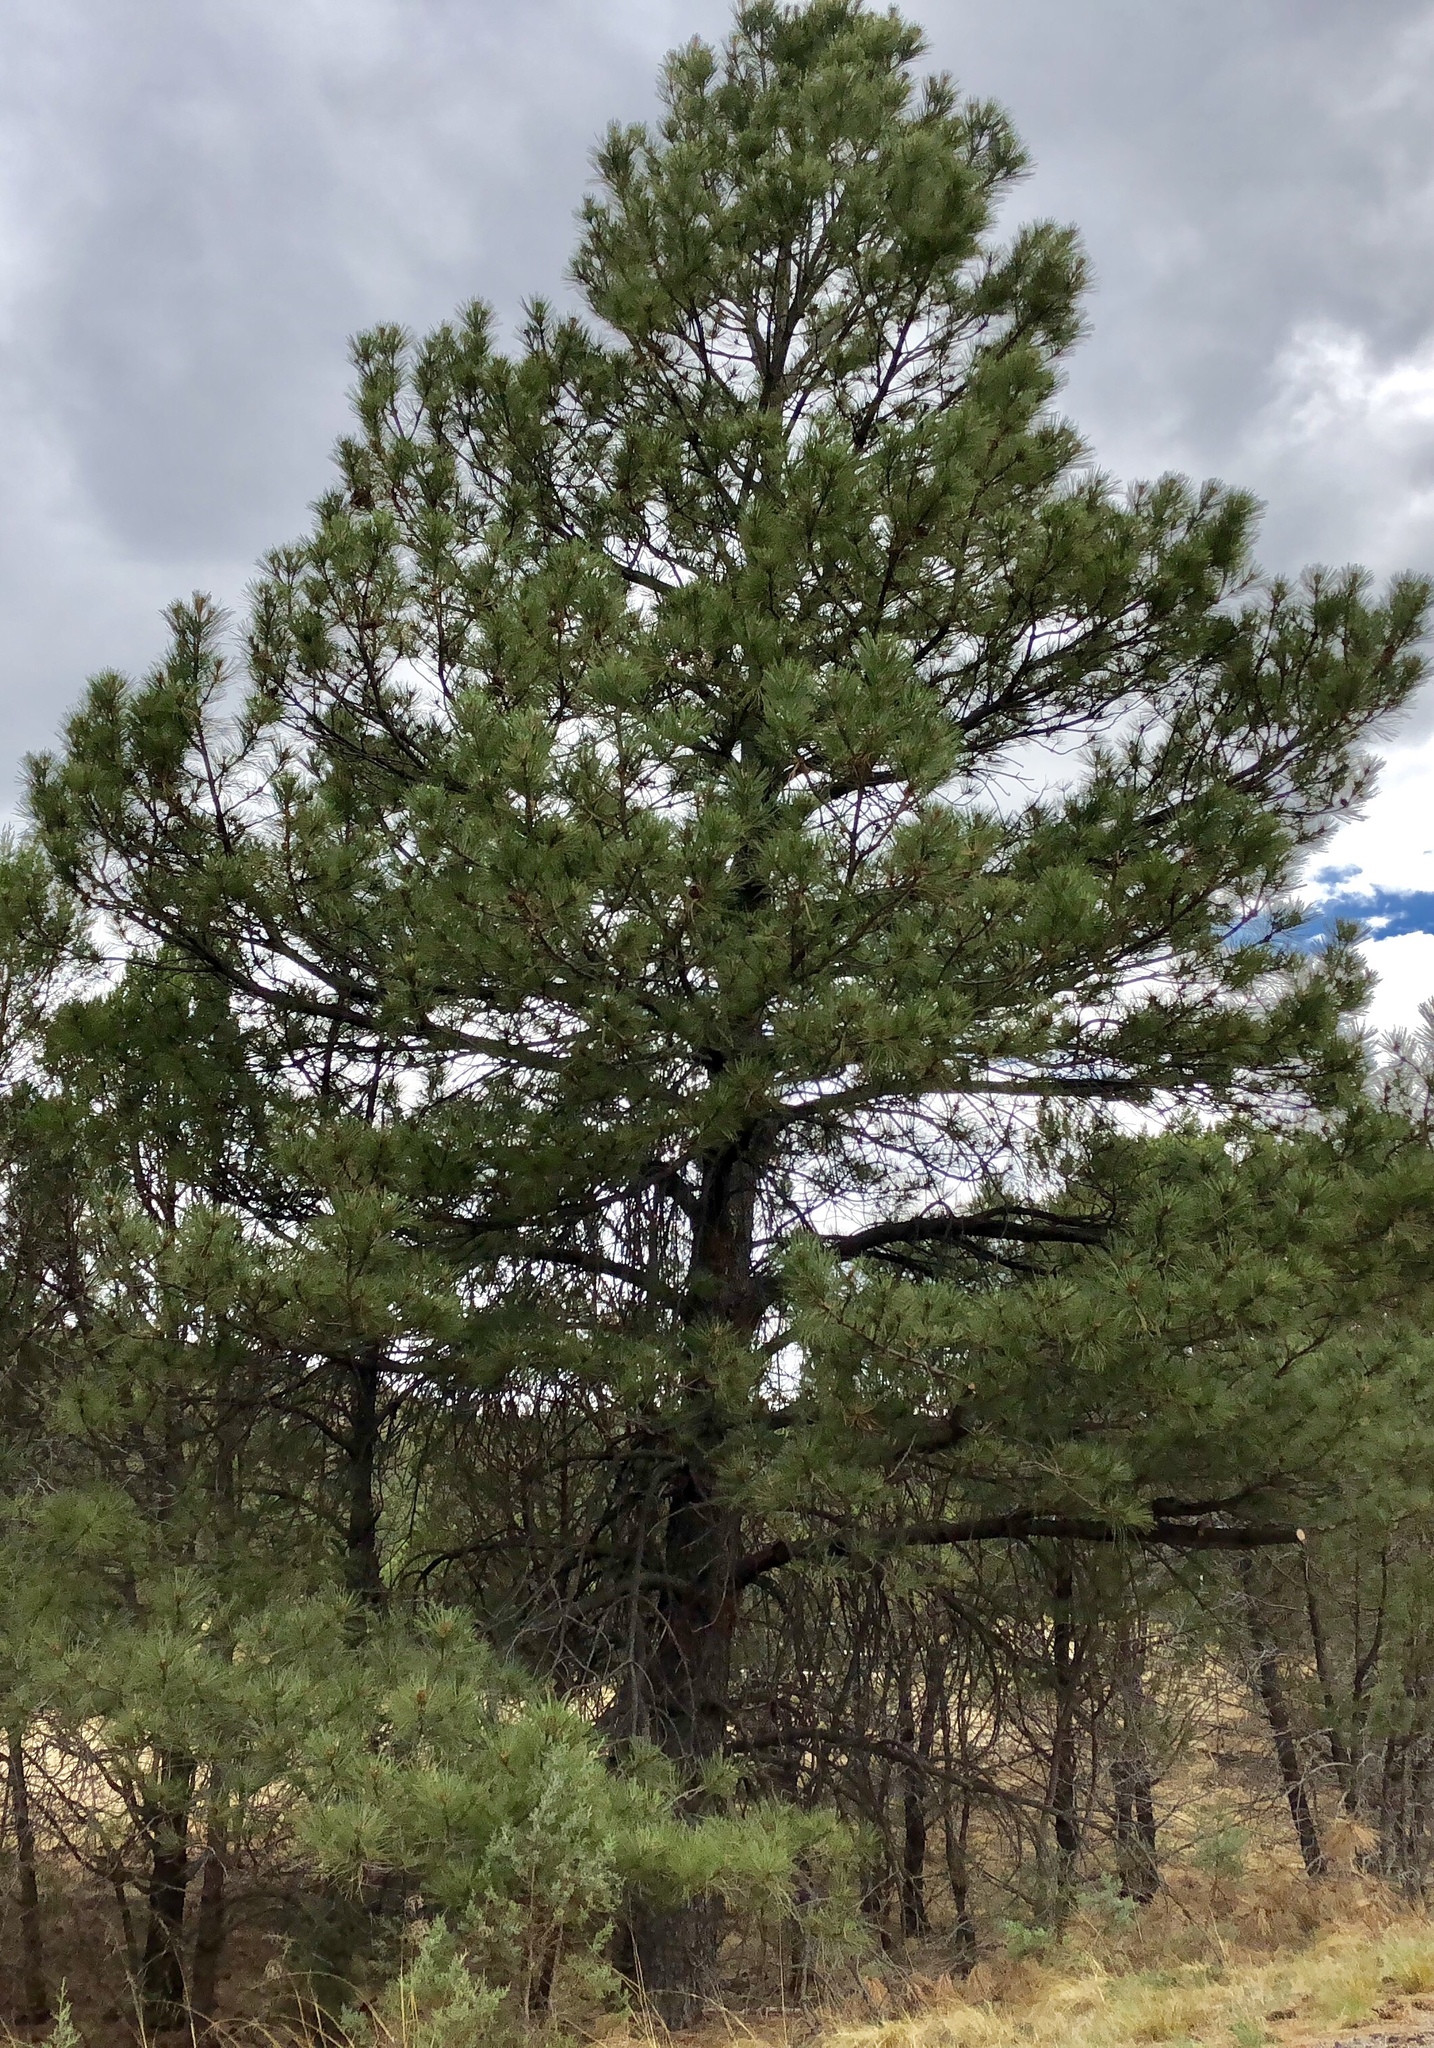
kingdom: Plantae
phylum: Tracheophyta
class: Pinopsida
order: Pinales
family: Pinaceae
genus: Pinus
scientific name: Pinus ponderosa
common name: Western yellow-pine
